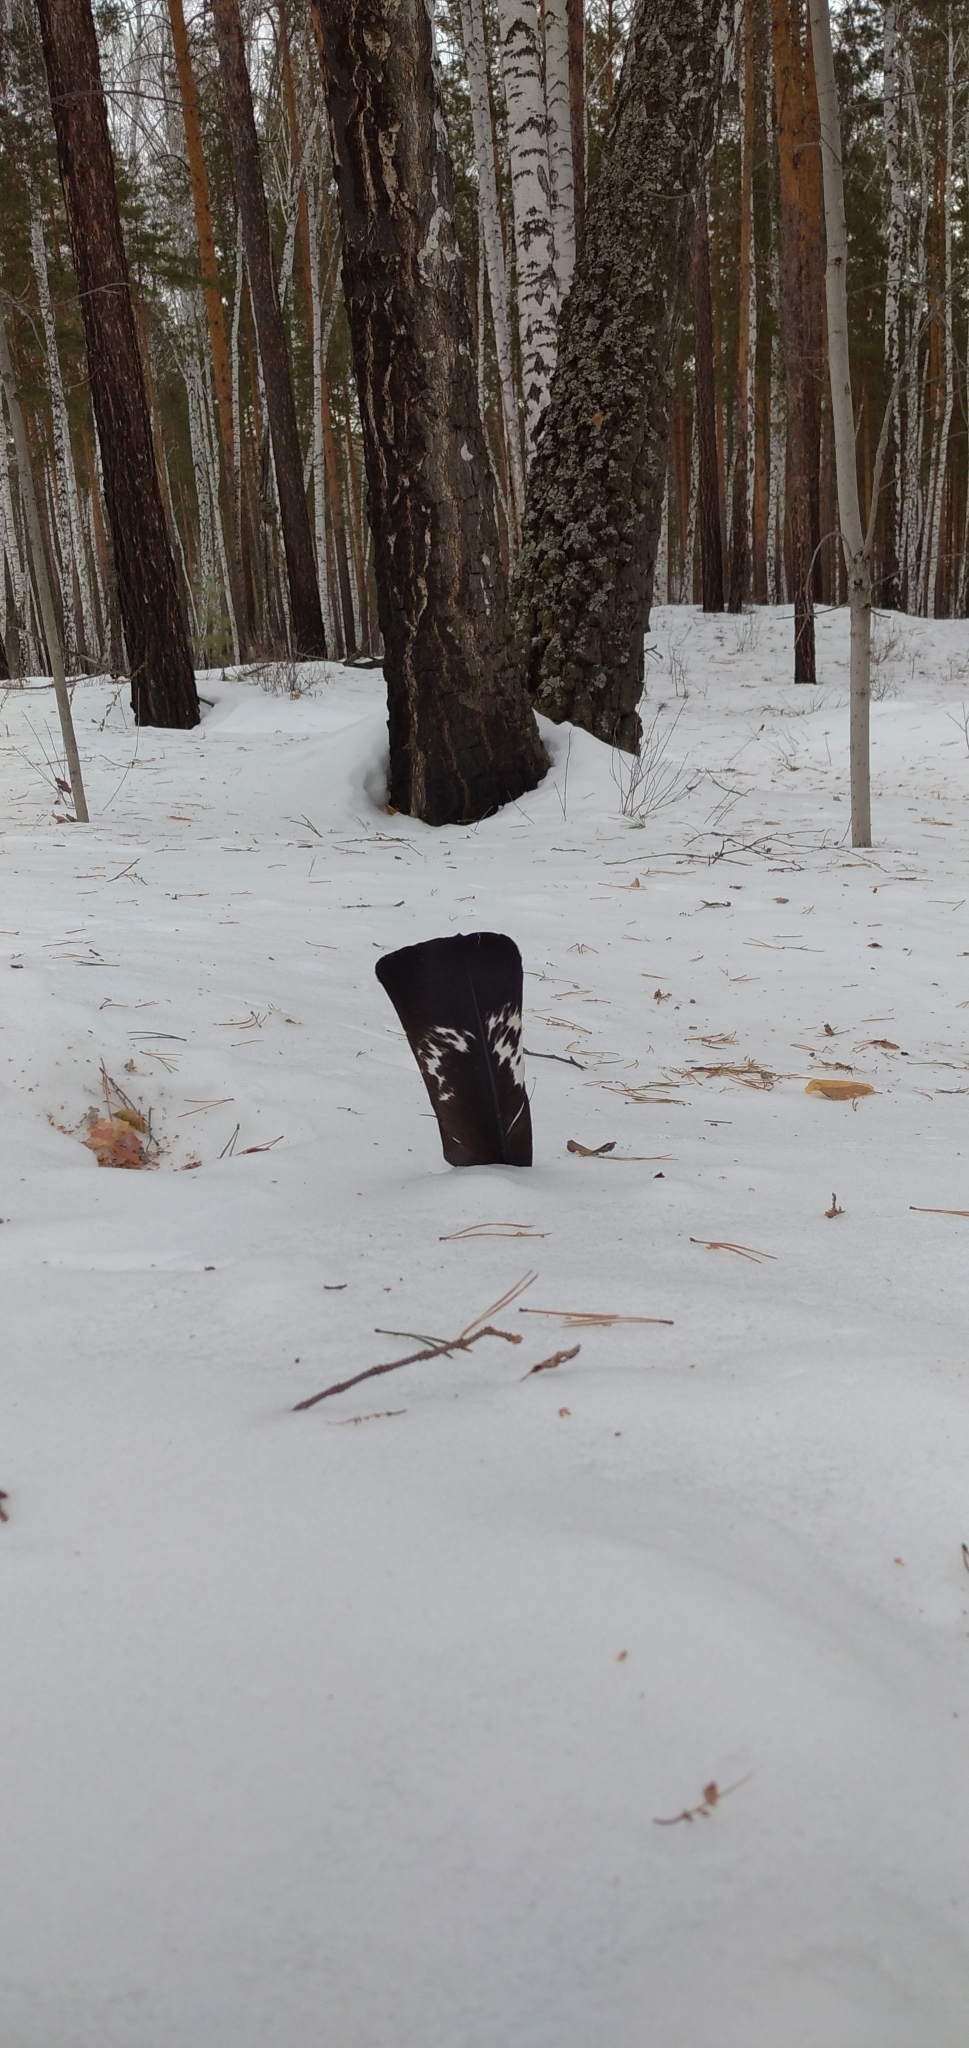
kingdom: Animalia
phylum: Chordata
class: Aves
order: Galliformes
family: Phasianidae
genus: Tetrao
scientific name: Tetrao urogallus
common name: Western capercaillie
